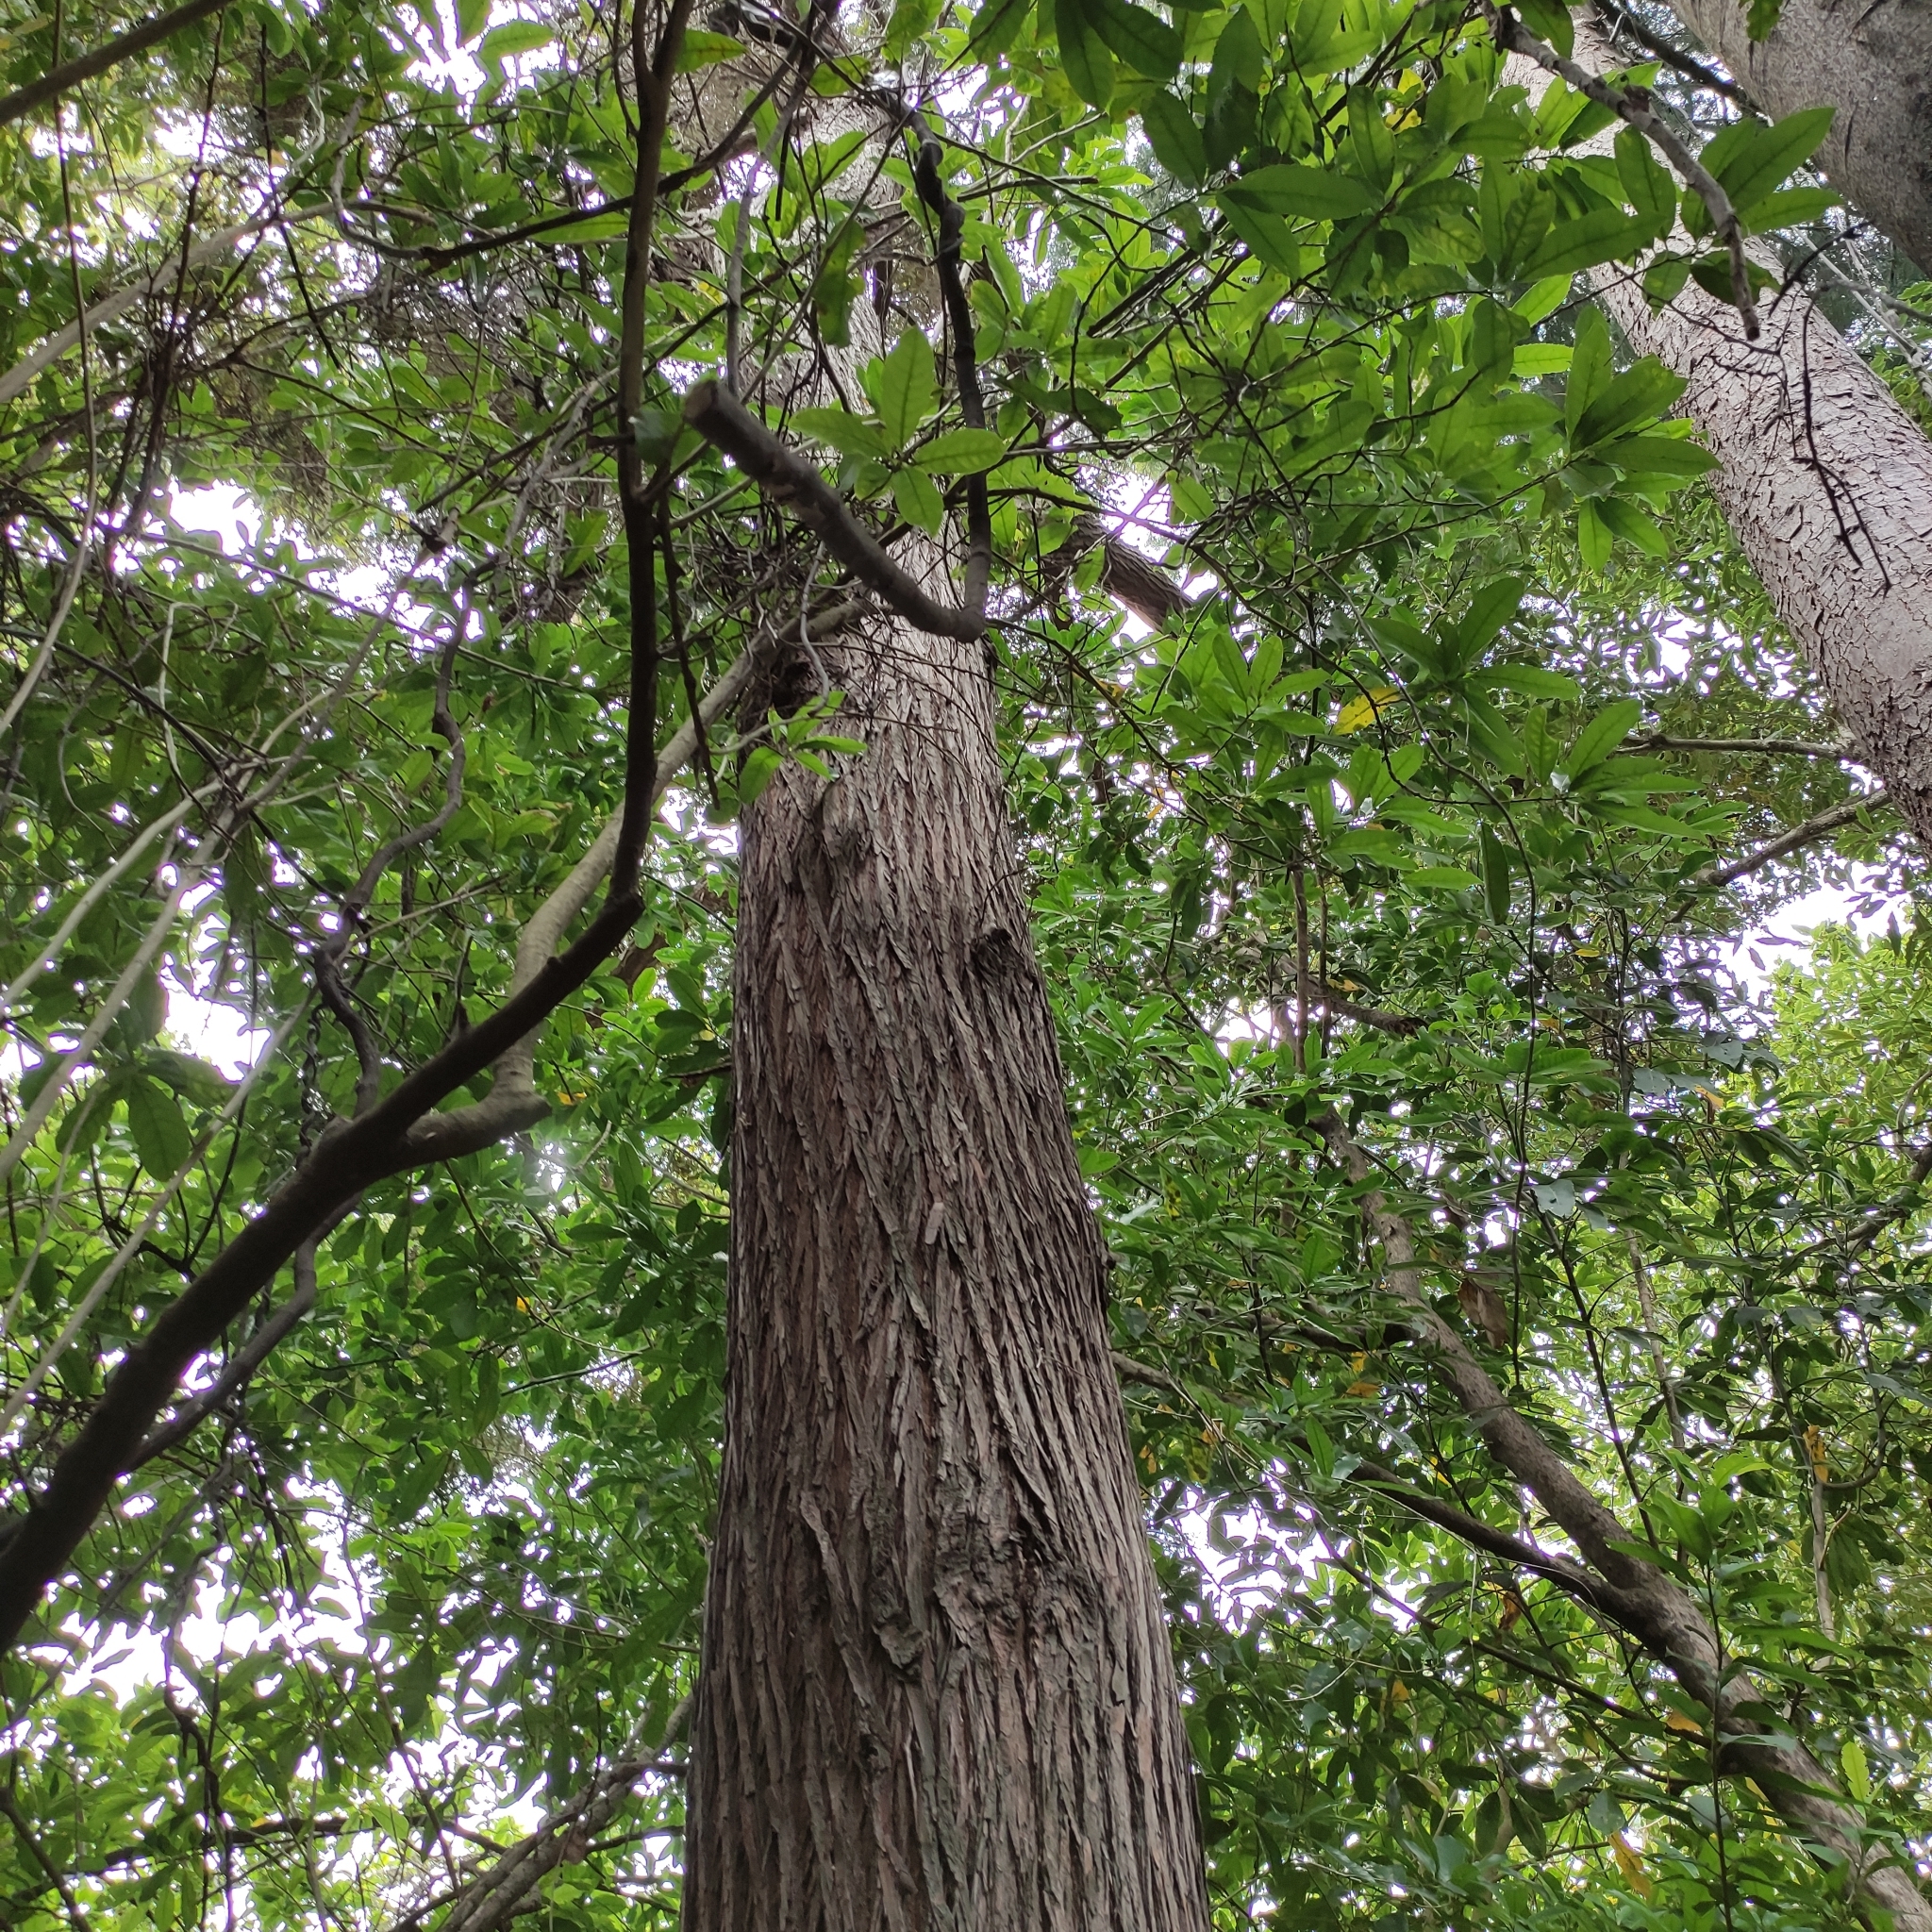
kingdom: Plantae
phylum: Tracheophyta
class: Pinopsida
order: Pinales
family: Podocarpaceae
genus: Podocarpus
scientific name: Podocarpus totara
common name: Totara
